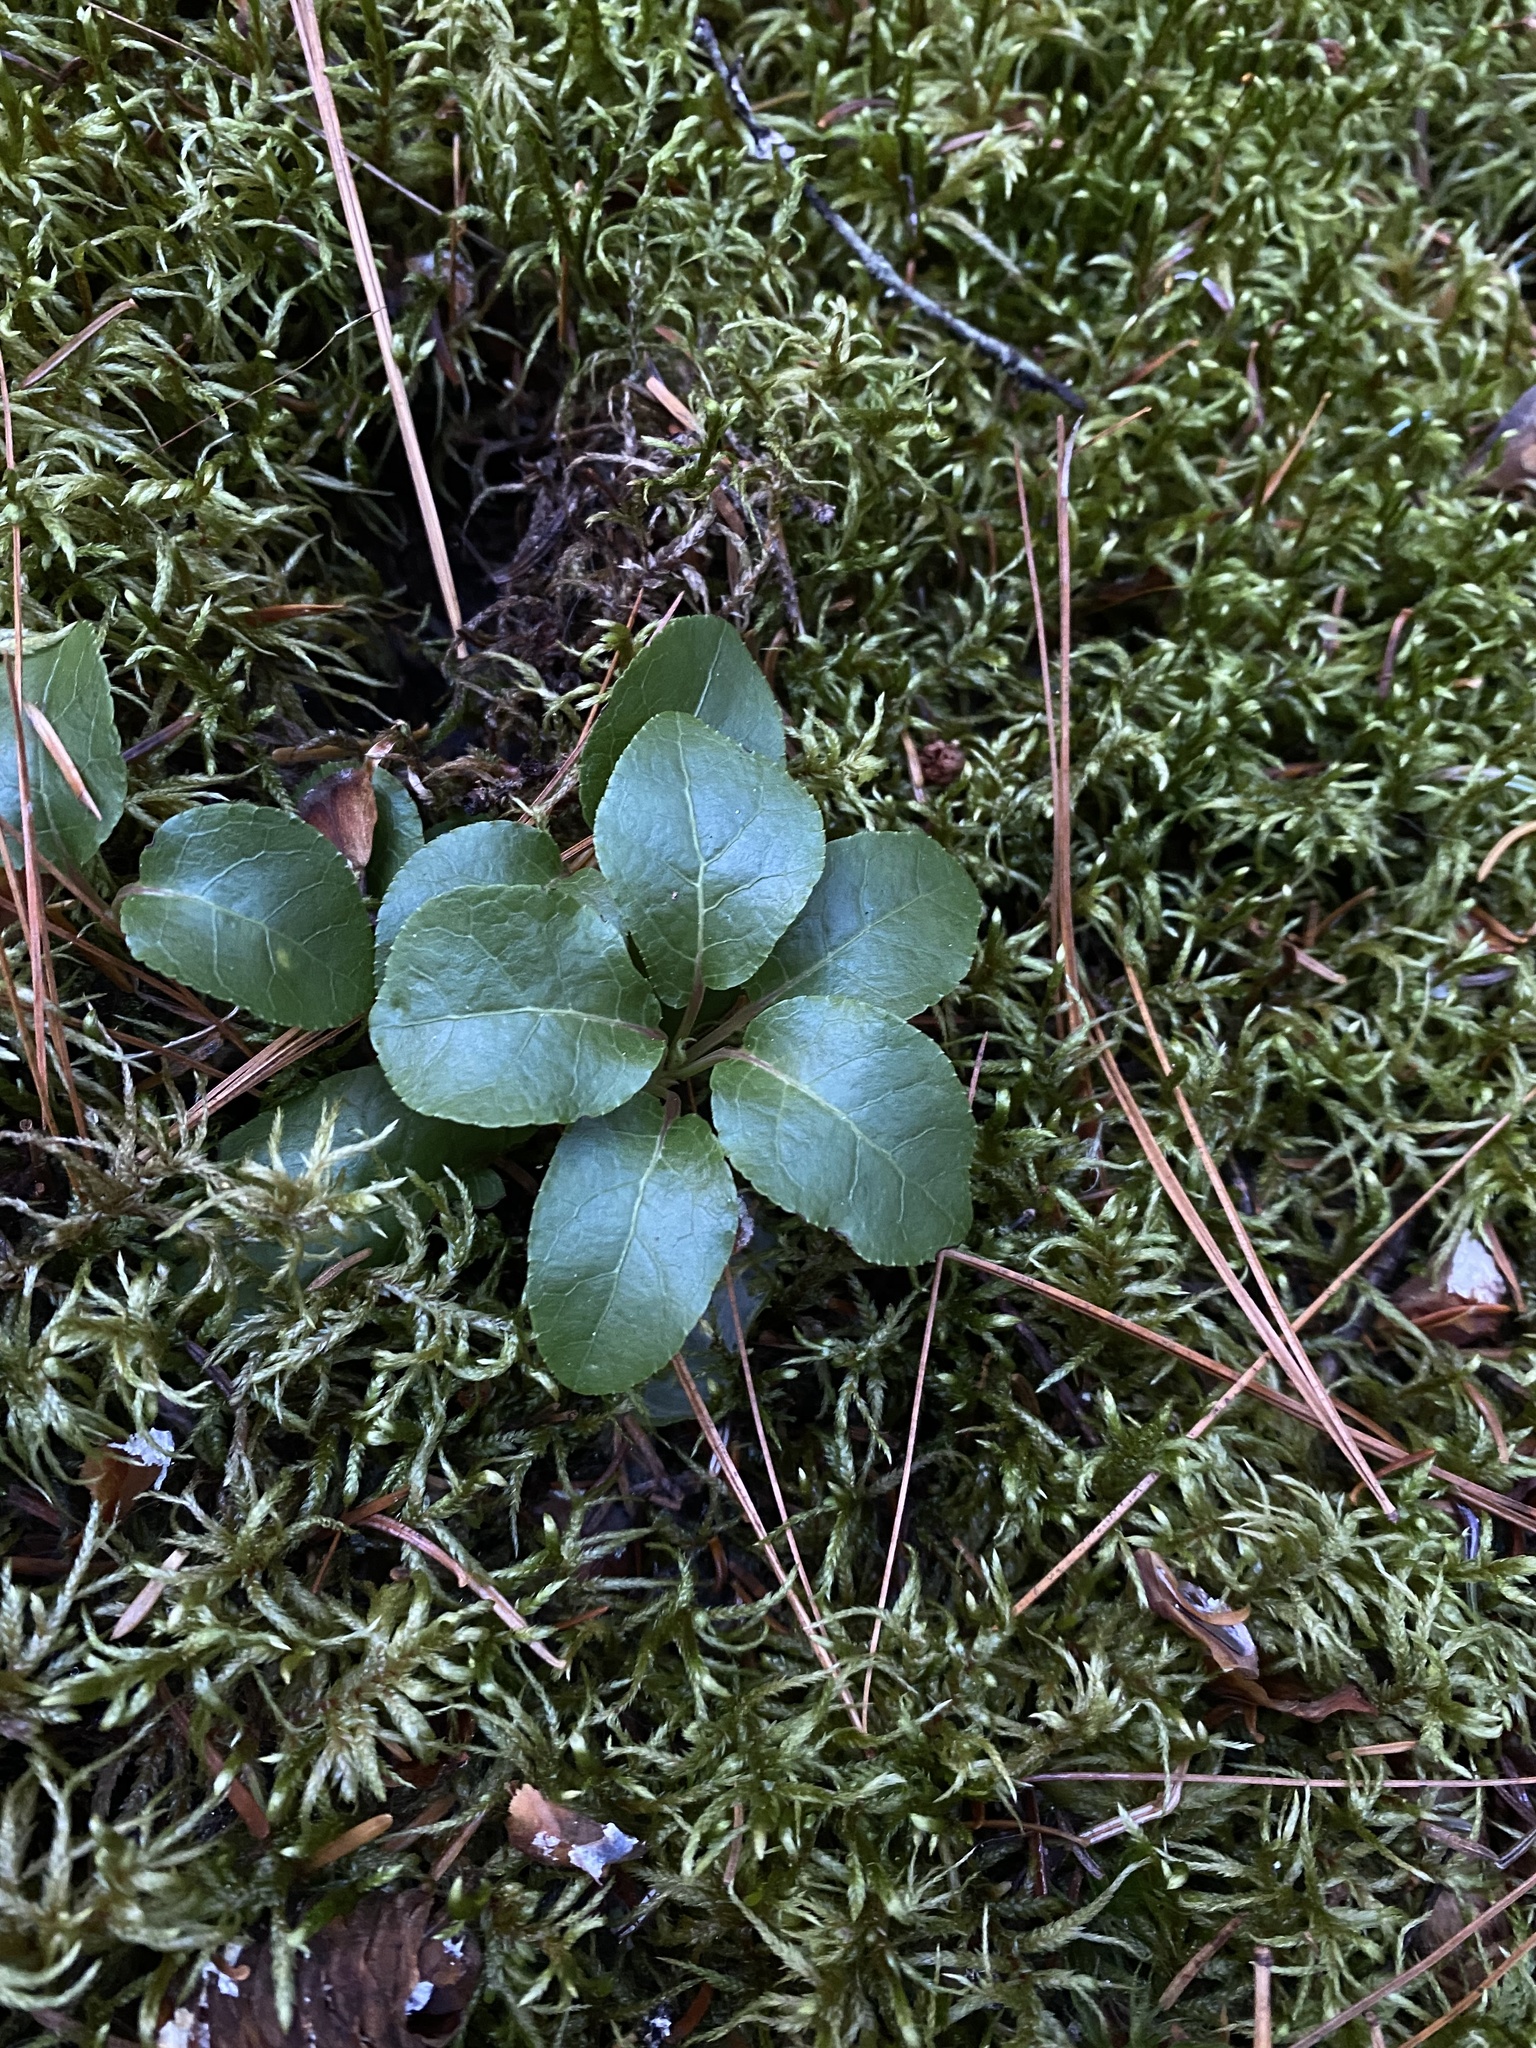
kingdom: Plantae
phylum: Tracheophyta
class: Magnoliopsida
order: Ericales
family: Ericaceae
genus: Orthilia
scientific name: Orthilia secunda
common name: One-sided orthilia
